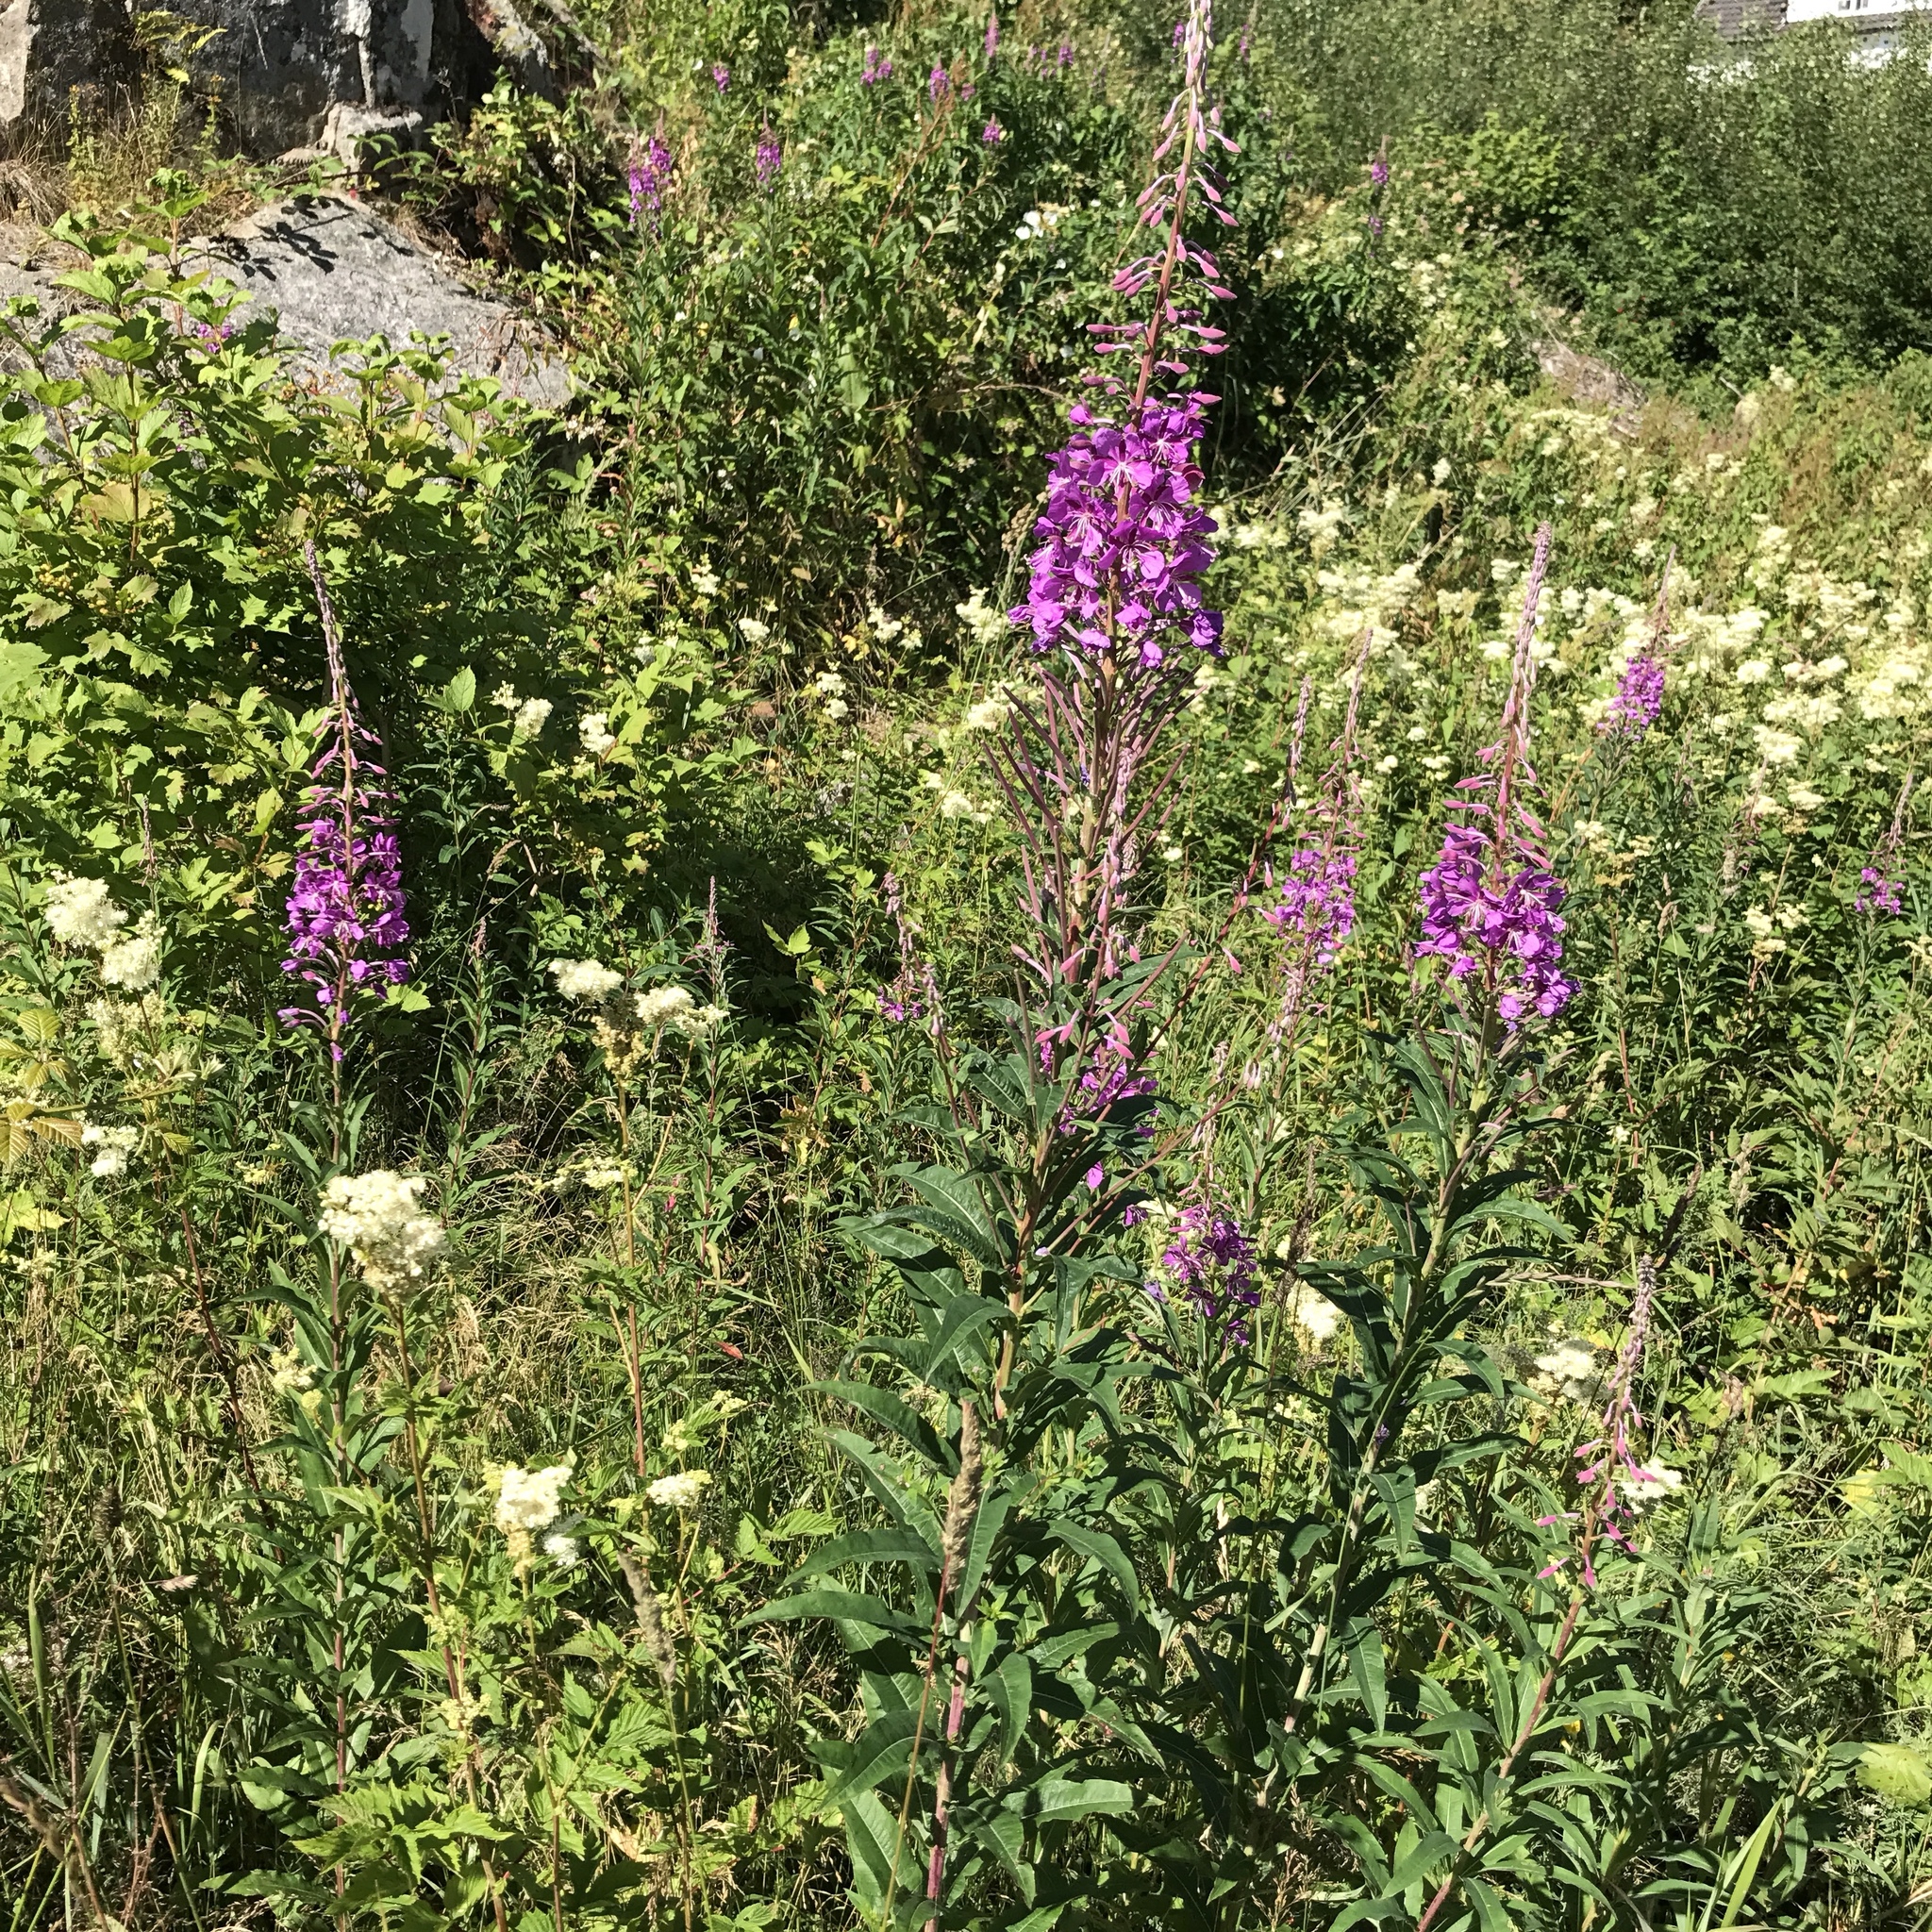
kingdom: Plantae
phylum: Tracheophyta
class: Magnoliopsida
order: Myrtales
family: Onagraceae
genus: Chamaenerion
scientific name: Chamaenerion angustifolium
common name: Fireweed
